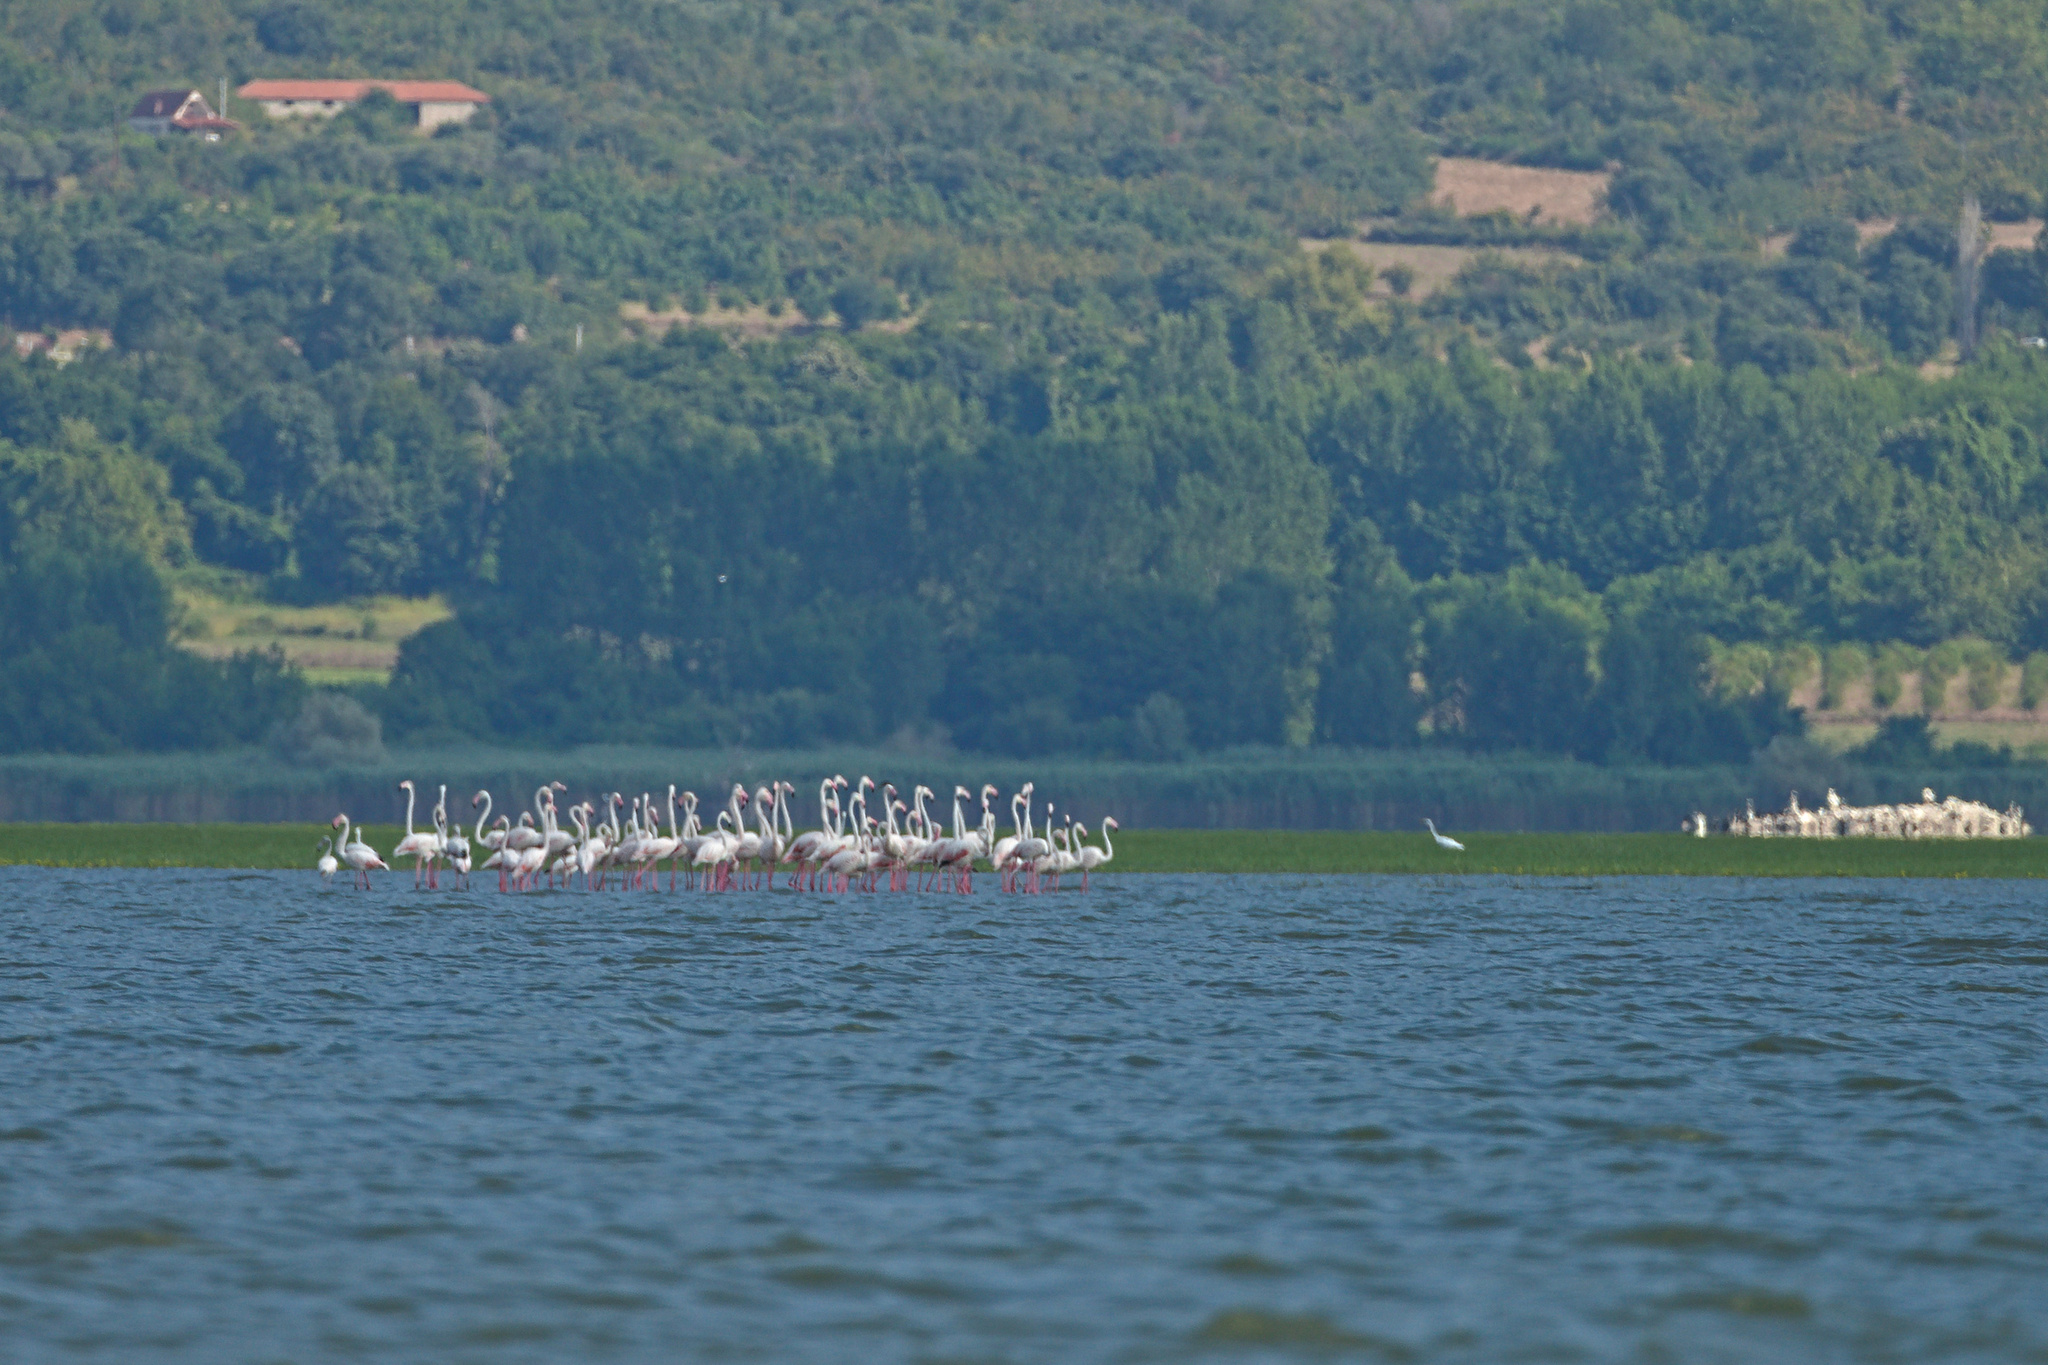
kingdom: Animalia
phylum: Chordata
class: Aves
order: Phoenicopteriformes
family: Phoenicopteridae
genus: Phoenicopterus
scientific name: Phoenicopterus roseus
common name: Greater flamingo
